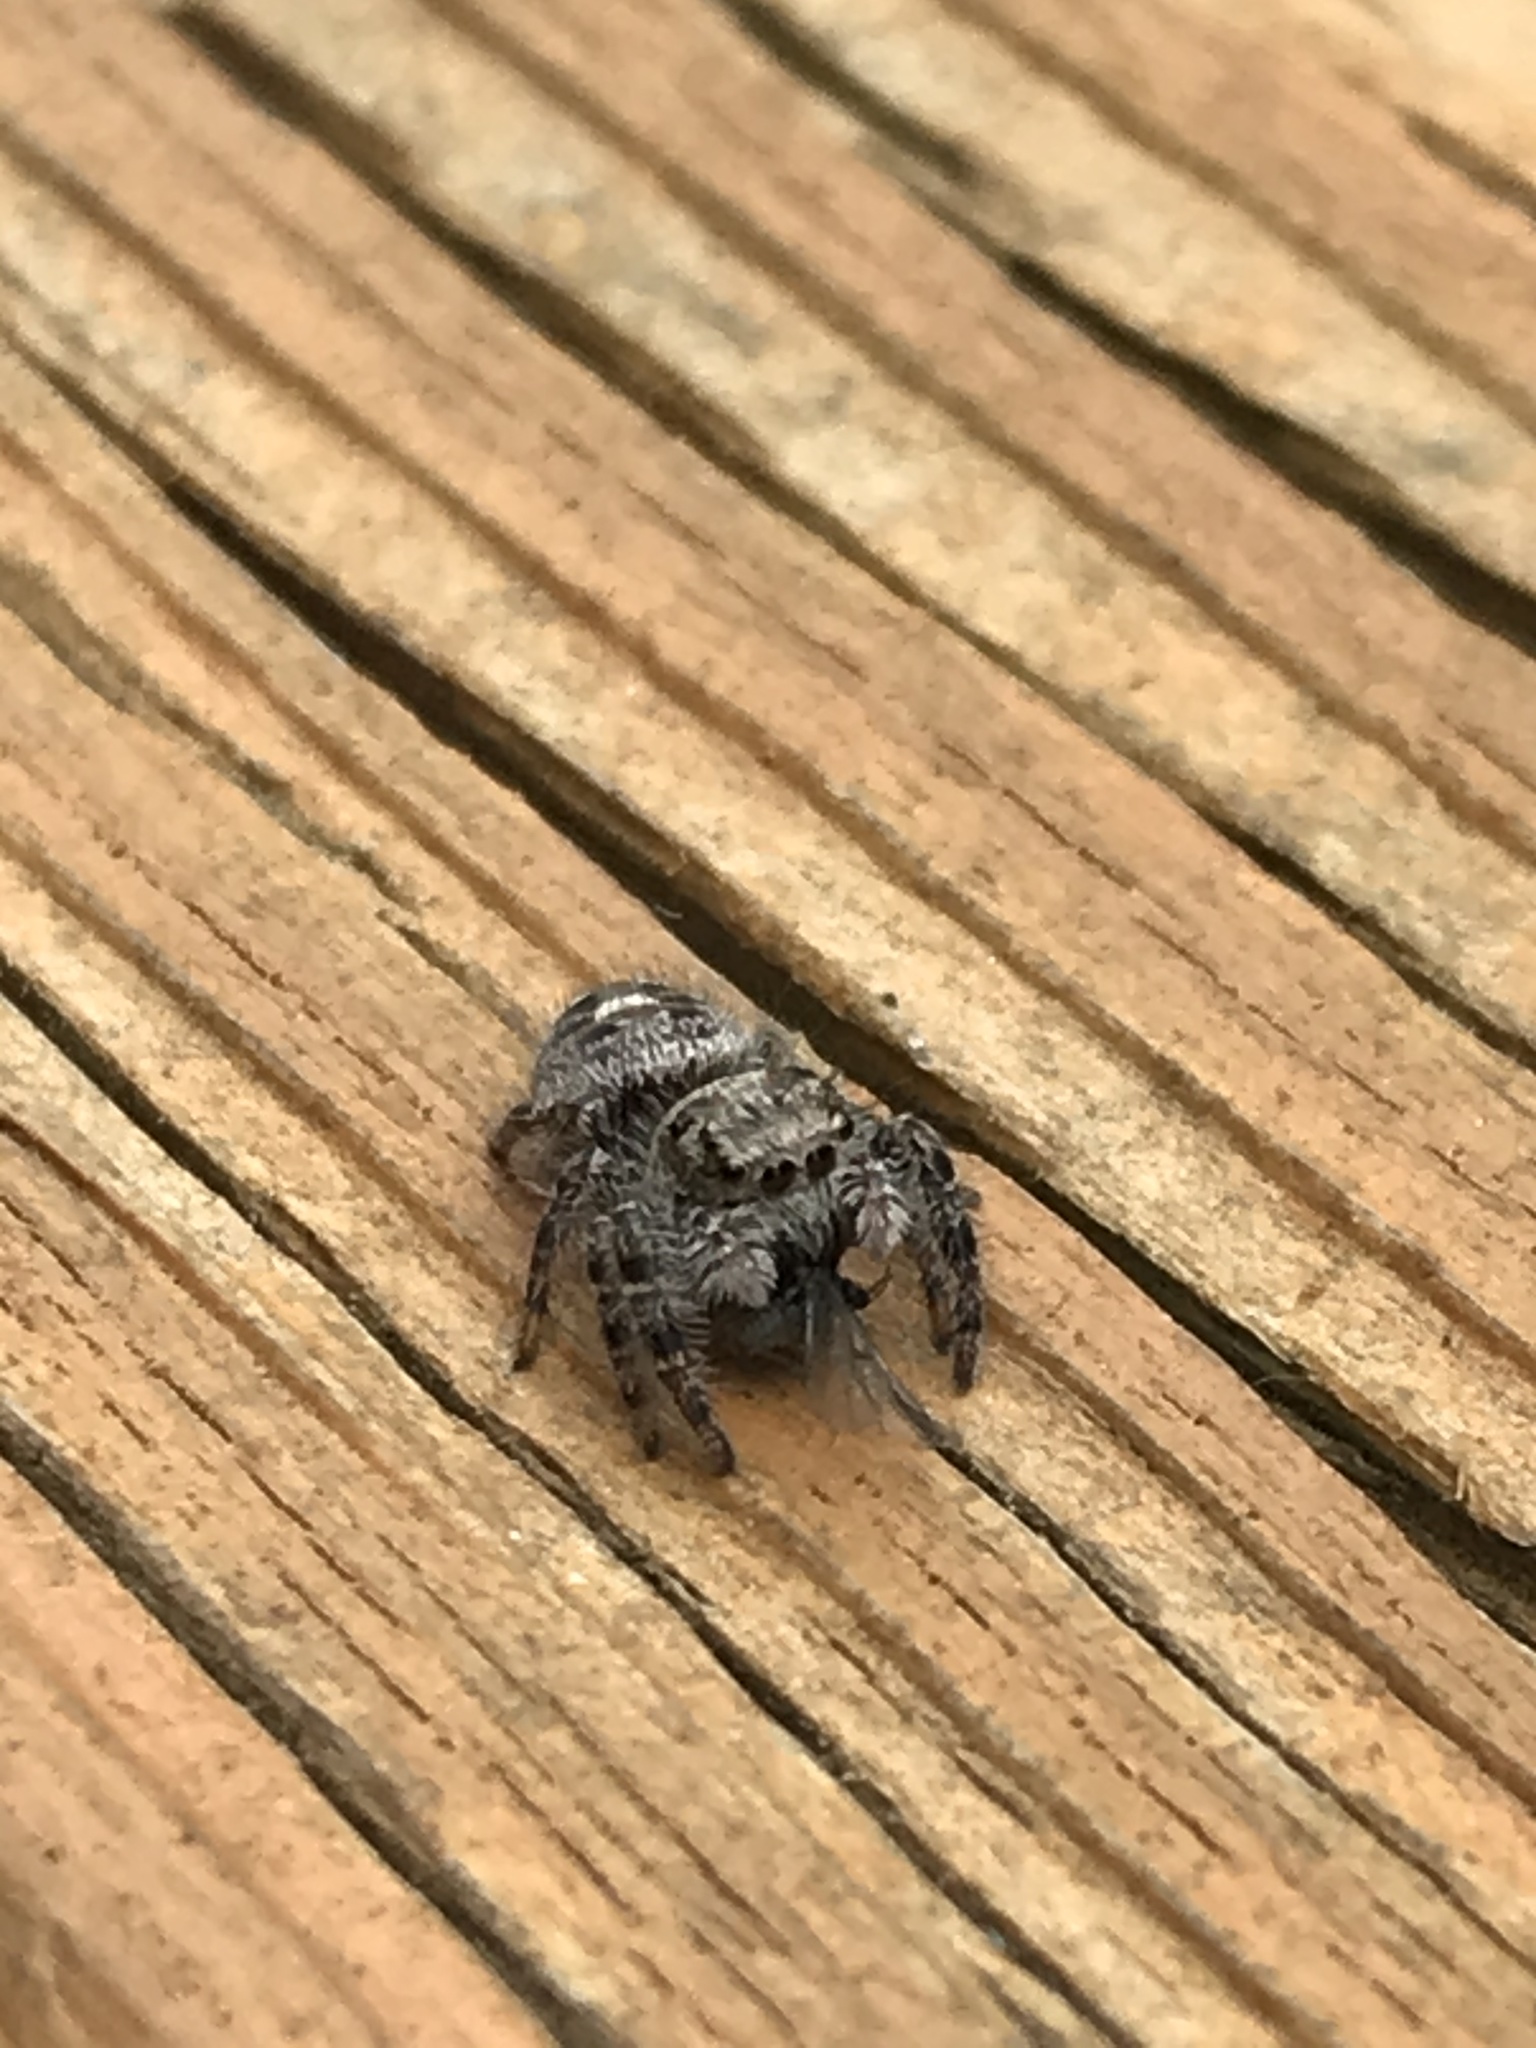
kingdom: Animalia
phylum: Arthropoda
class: Arachnida
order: Araneae
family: Salticidae
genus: Phidippus
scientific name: Phidippus putnami
